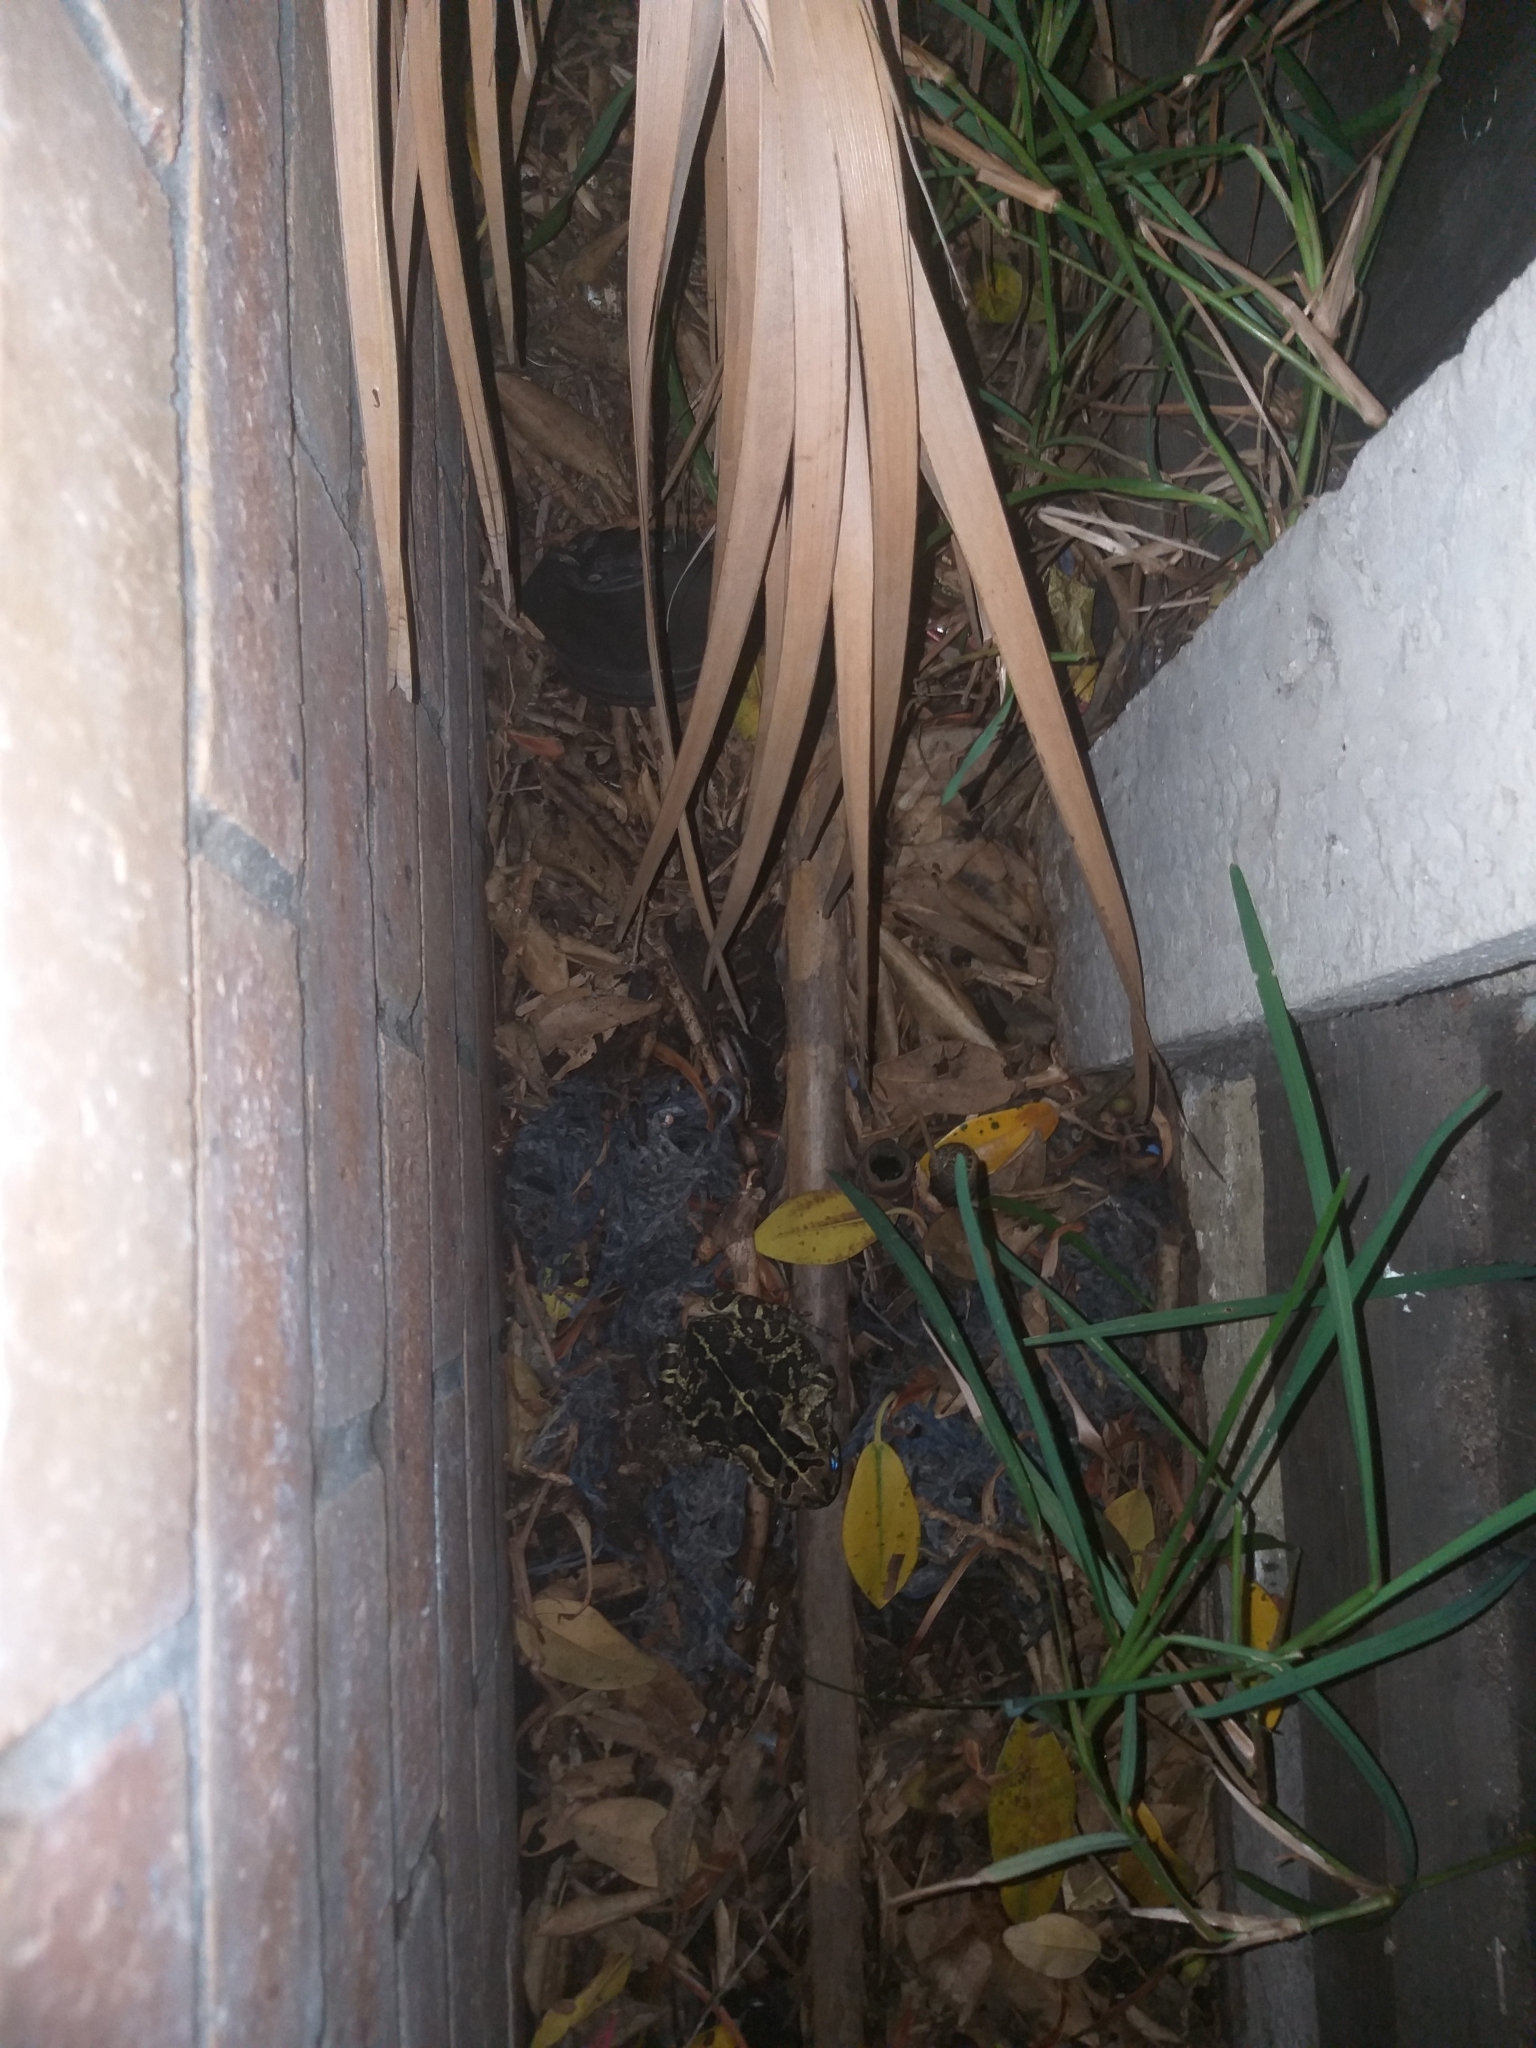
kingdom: Animalia
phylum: Chordata
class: Amphibia
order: Anura
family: Bufonidae
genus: Sclerophrys
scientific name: Sclerophrys pantherina
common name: Panther toad
